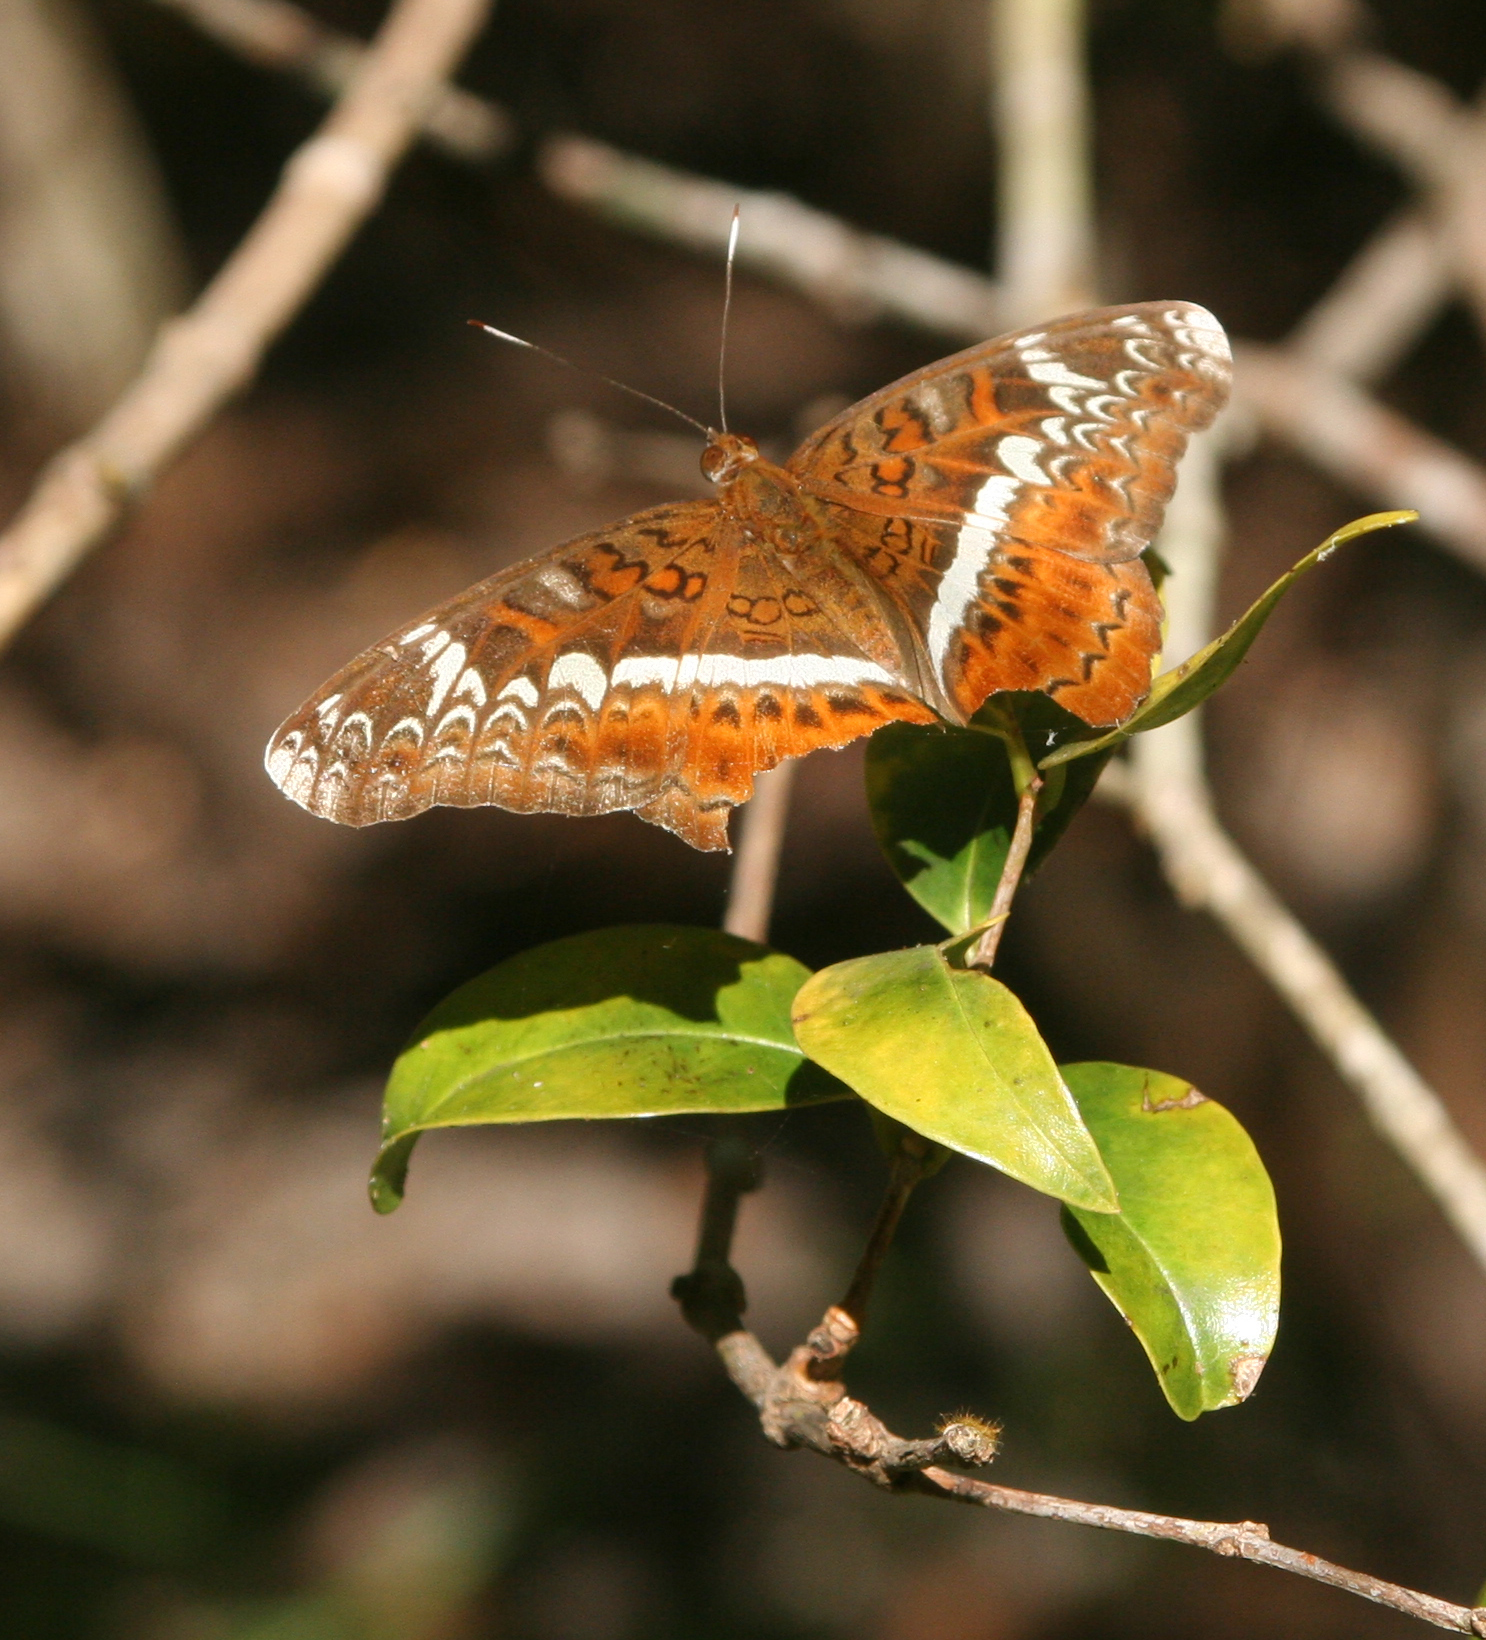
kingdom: Animalia
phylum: Arthropoda
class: Insecta
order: Lepidoptera
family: Nymphalidae
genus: Lebadea
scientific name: Lebadea martha
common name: Knight
